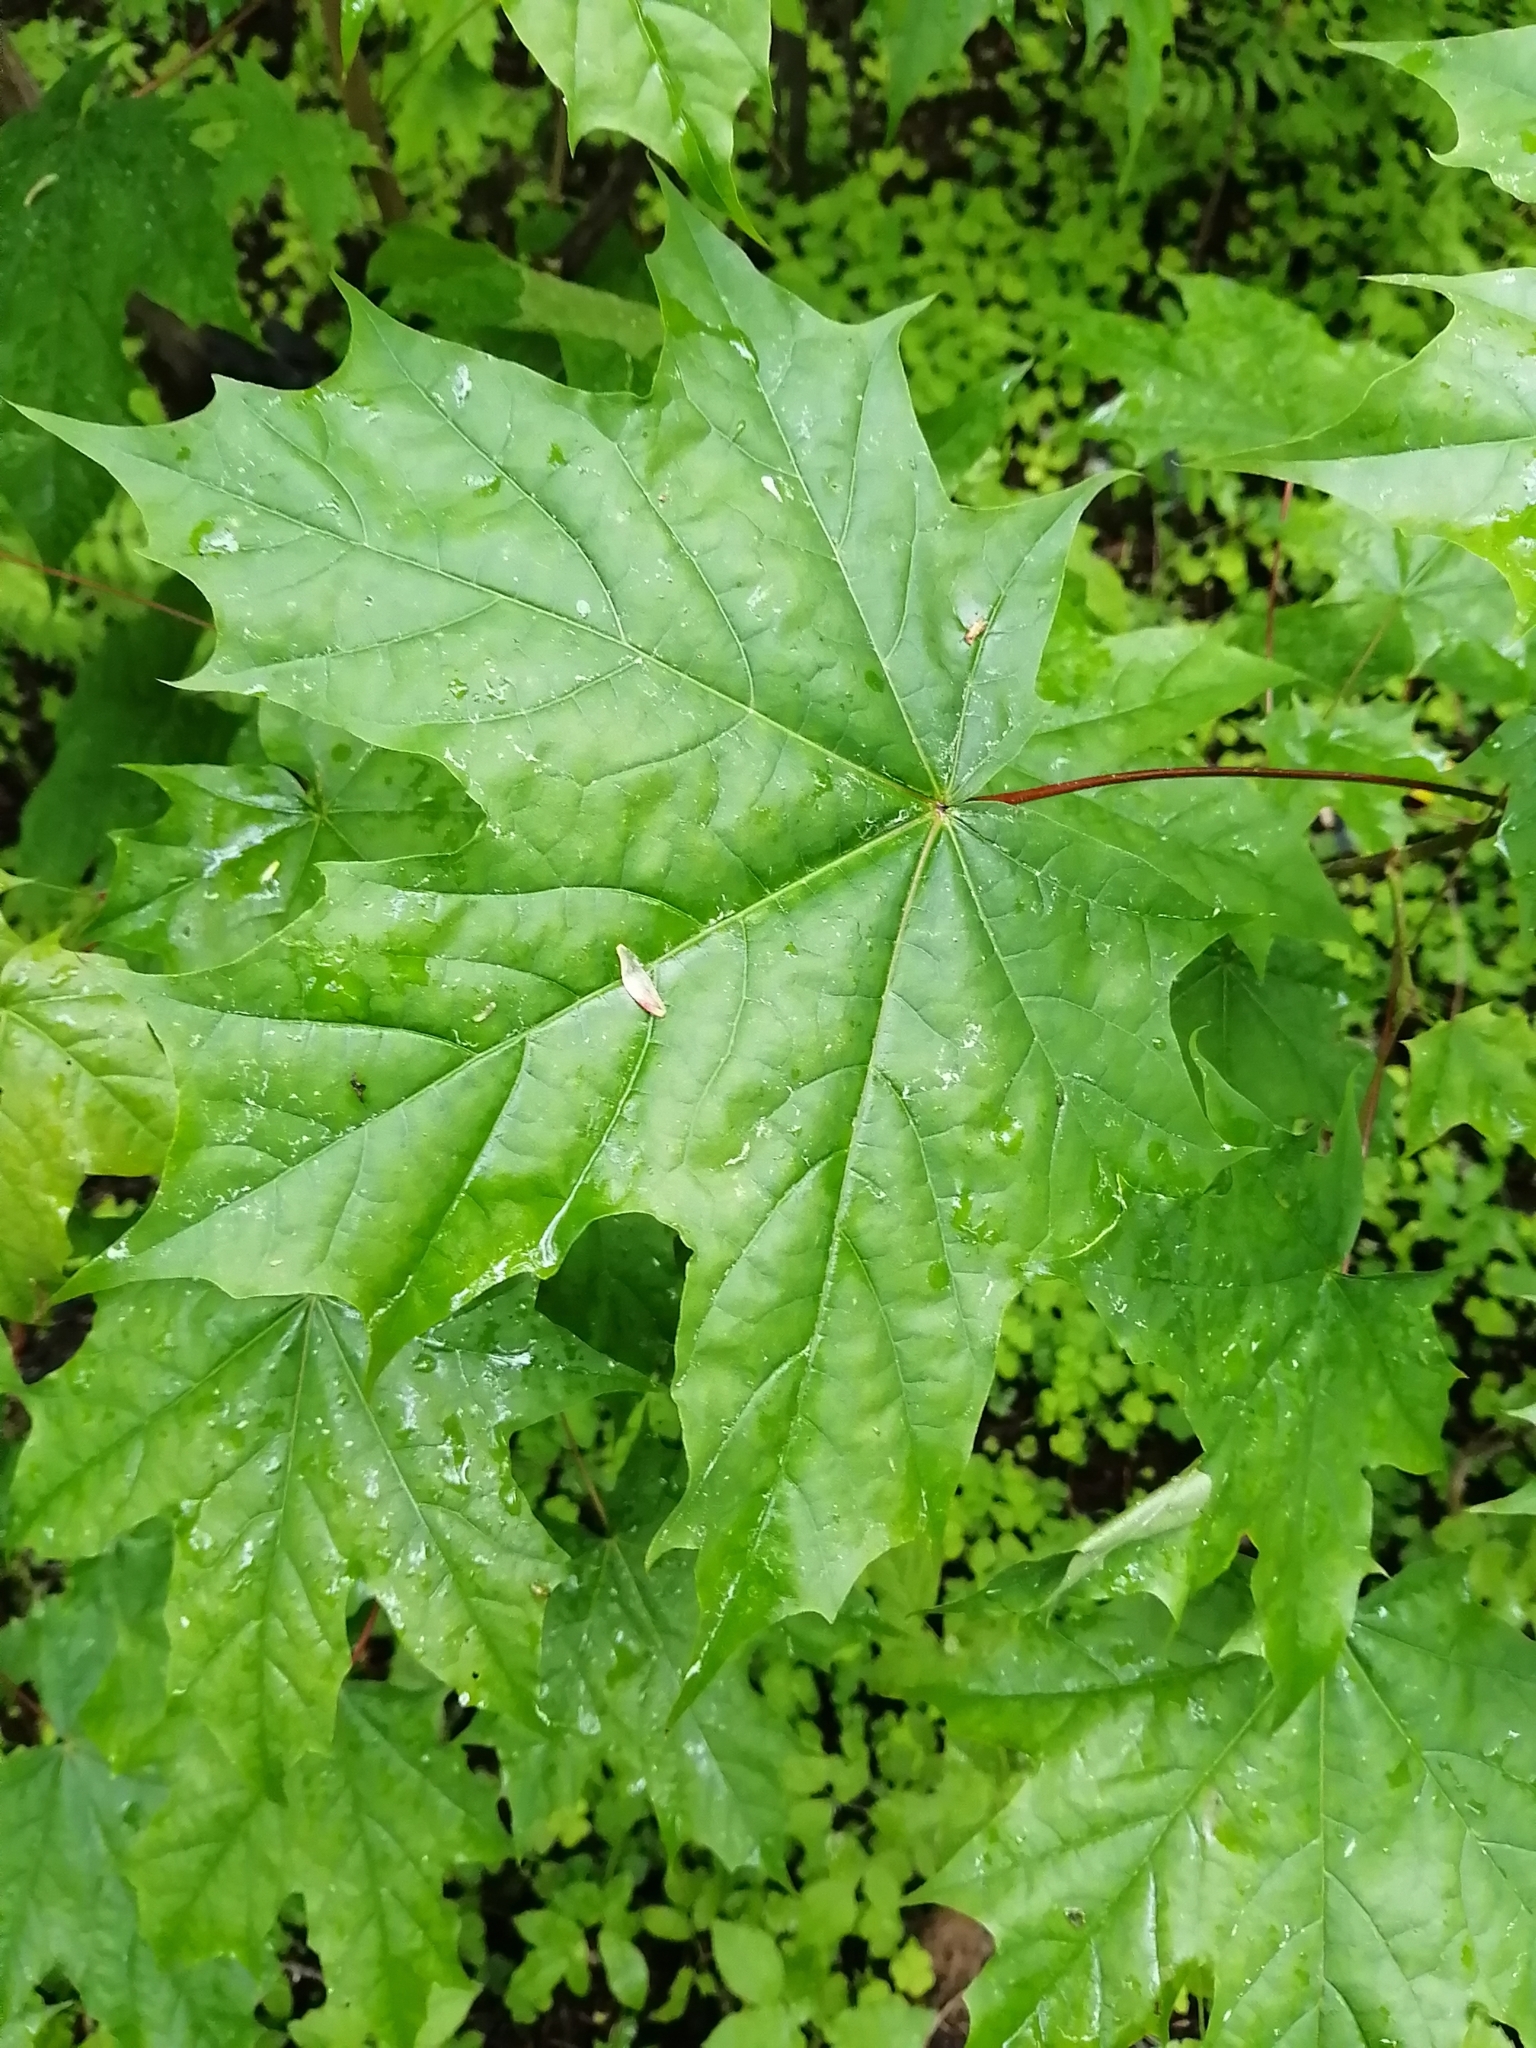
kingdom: Plantae
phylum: Tracheophyta
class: Magnoliopsida
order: Sapindales
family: Sapindaceae
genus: Acer
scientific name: Acer platanoides
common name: Norway maple
